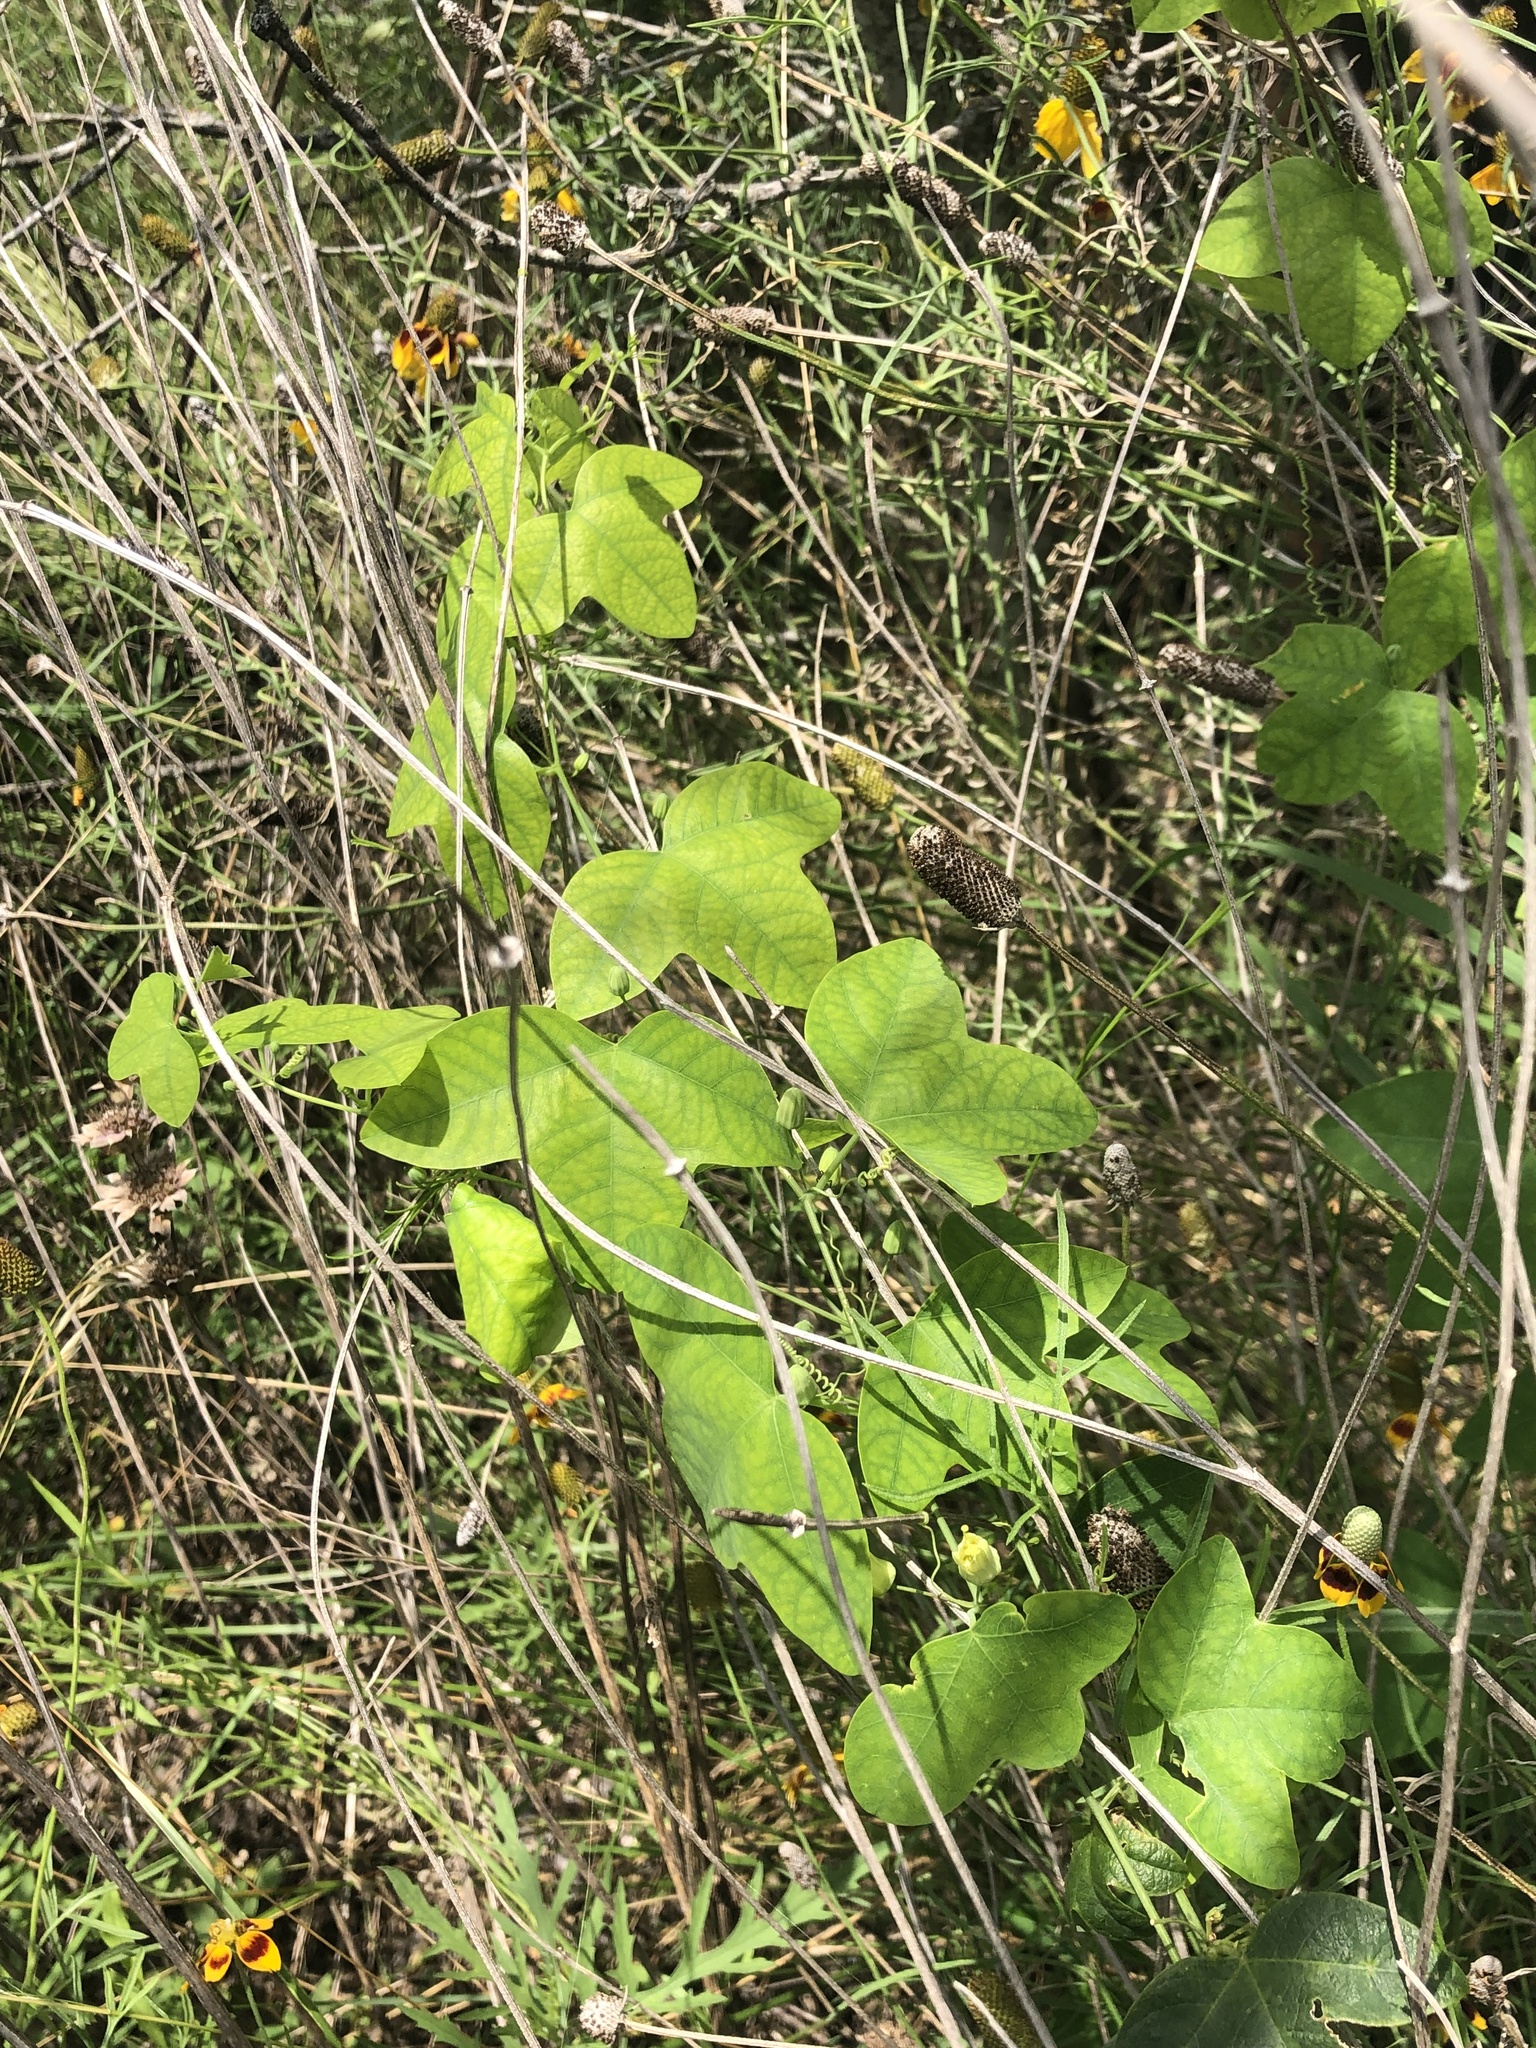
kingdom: Plantae
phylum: Tracheophyta
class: Magnoliopsida
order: Malpighiales
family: Passifloraceae
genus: Passiflora
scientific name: Passiflora lutea
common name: Yellow passionflower
